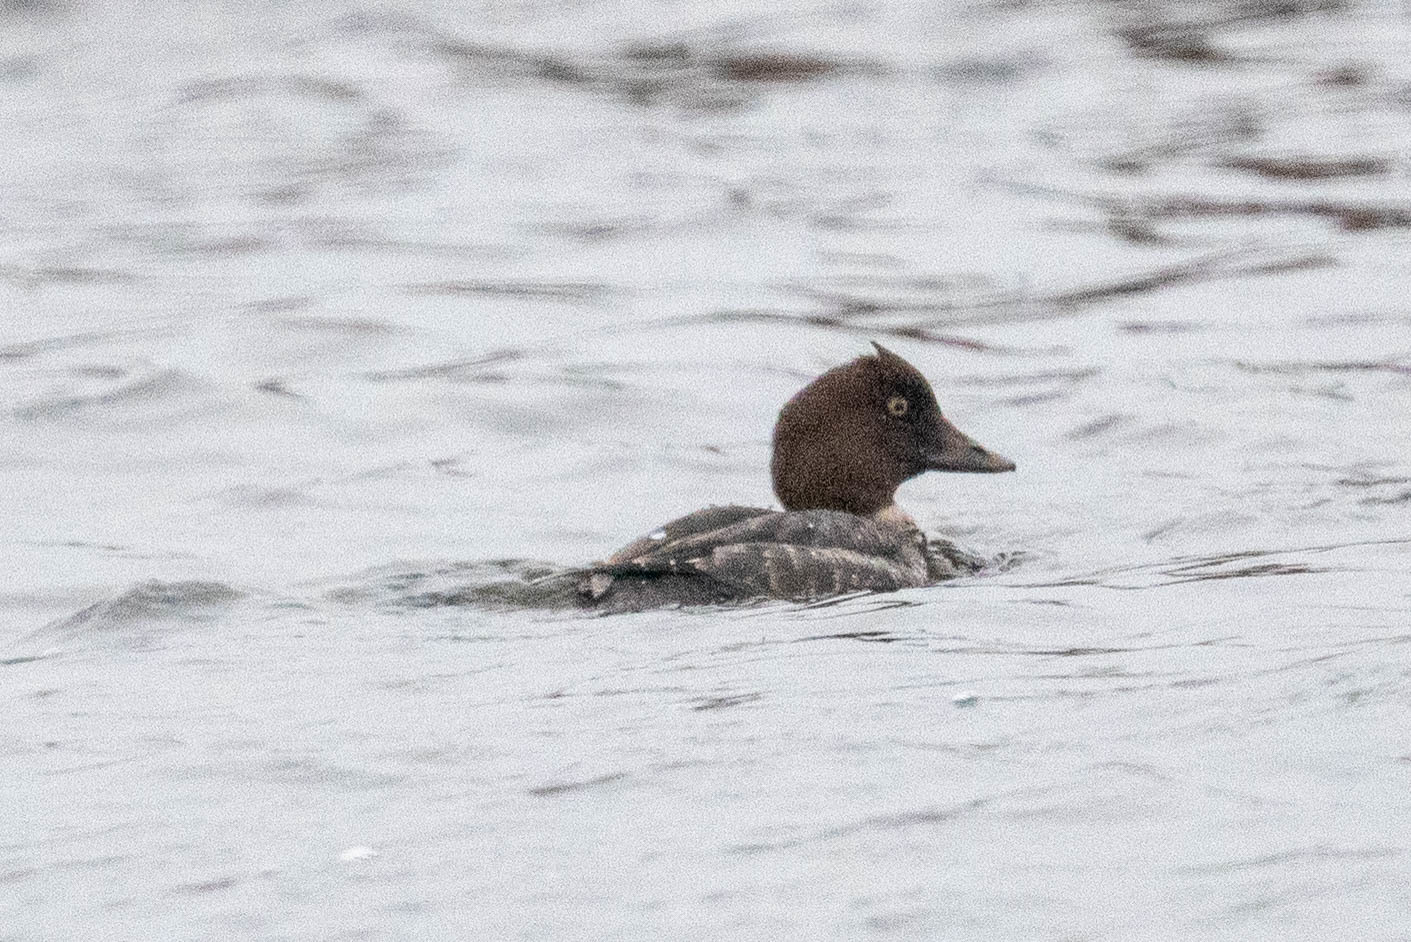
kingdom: Animalia
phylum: Chordata
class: Aves
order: Anseriformes
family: Anatidae
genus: Bucephala
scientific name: Bucephala clangula
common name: Common goldeneye
